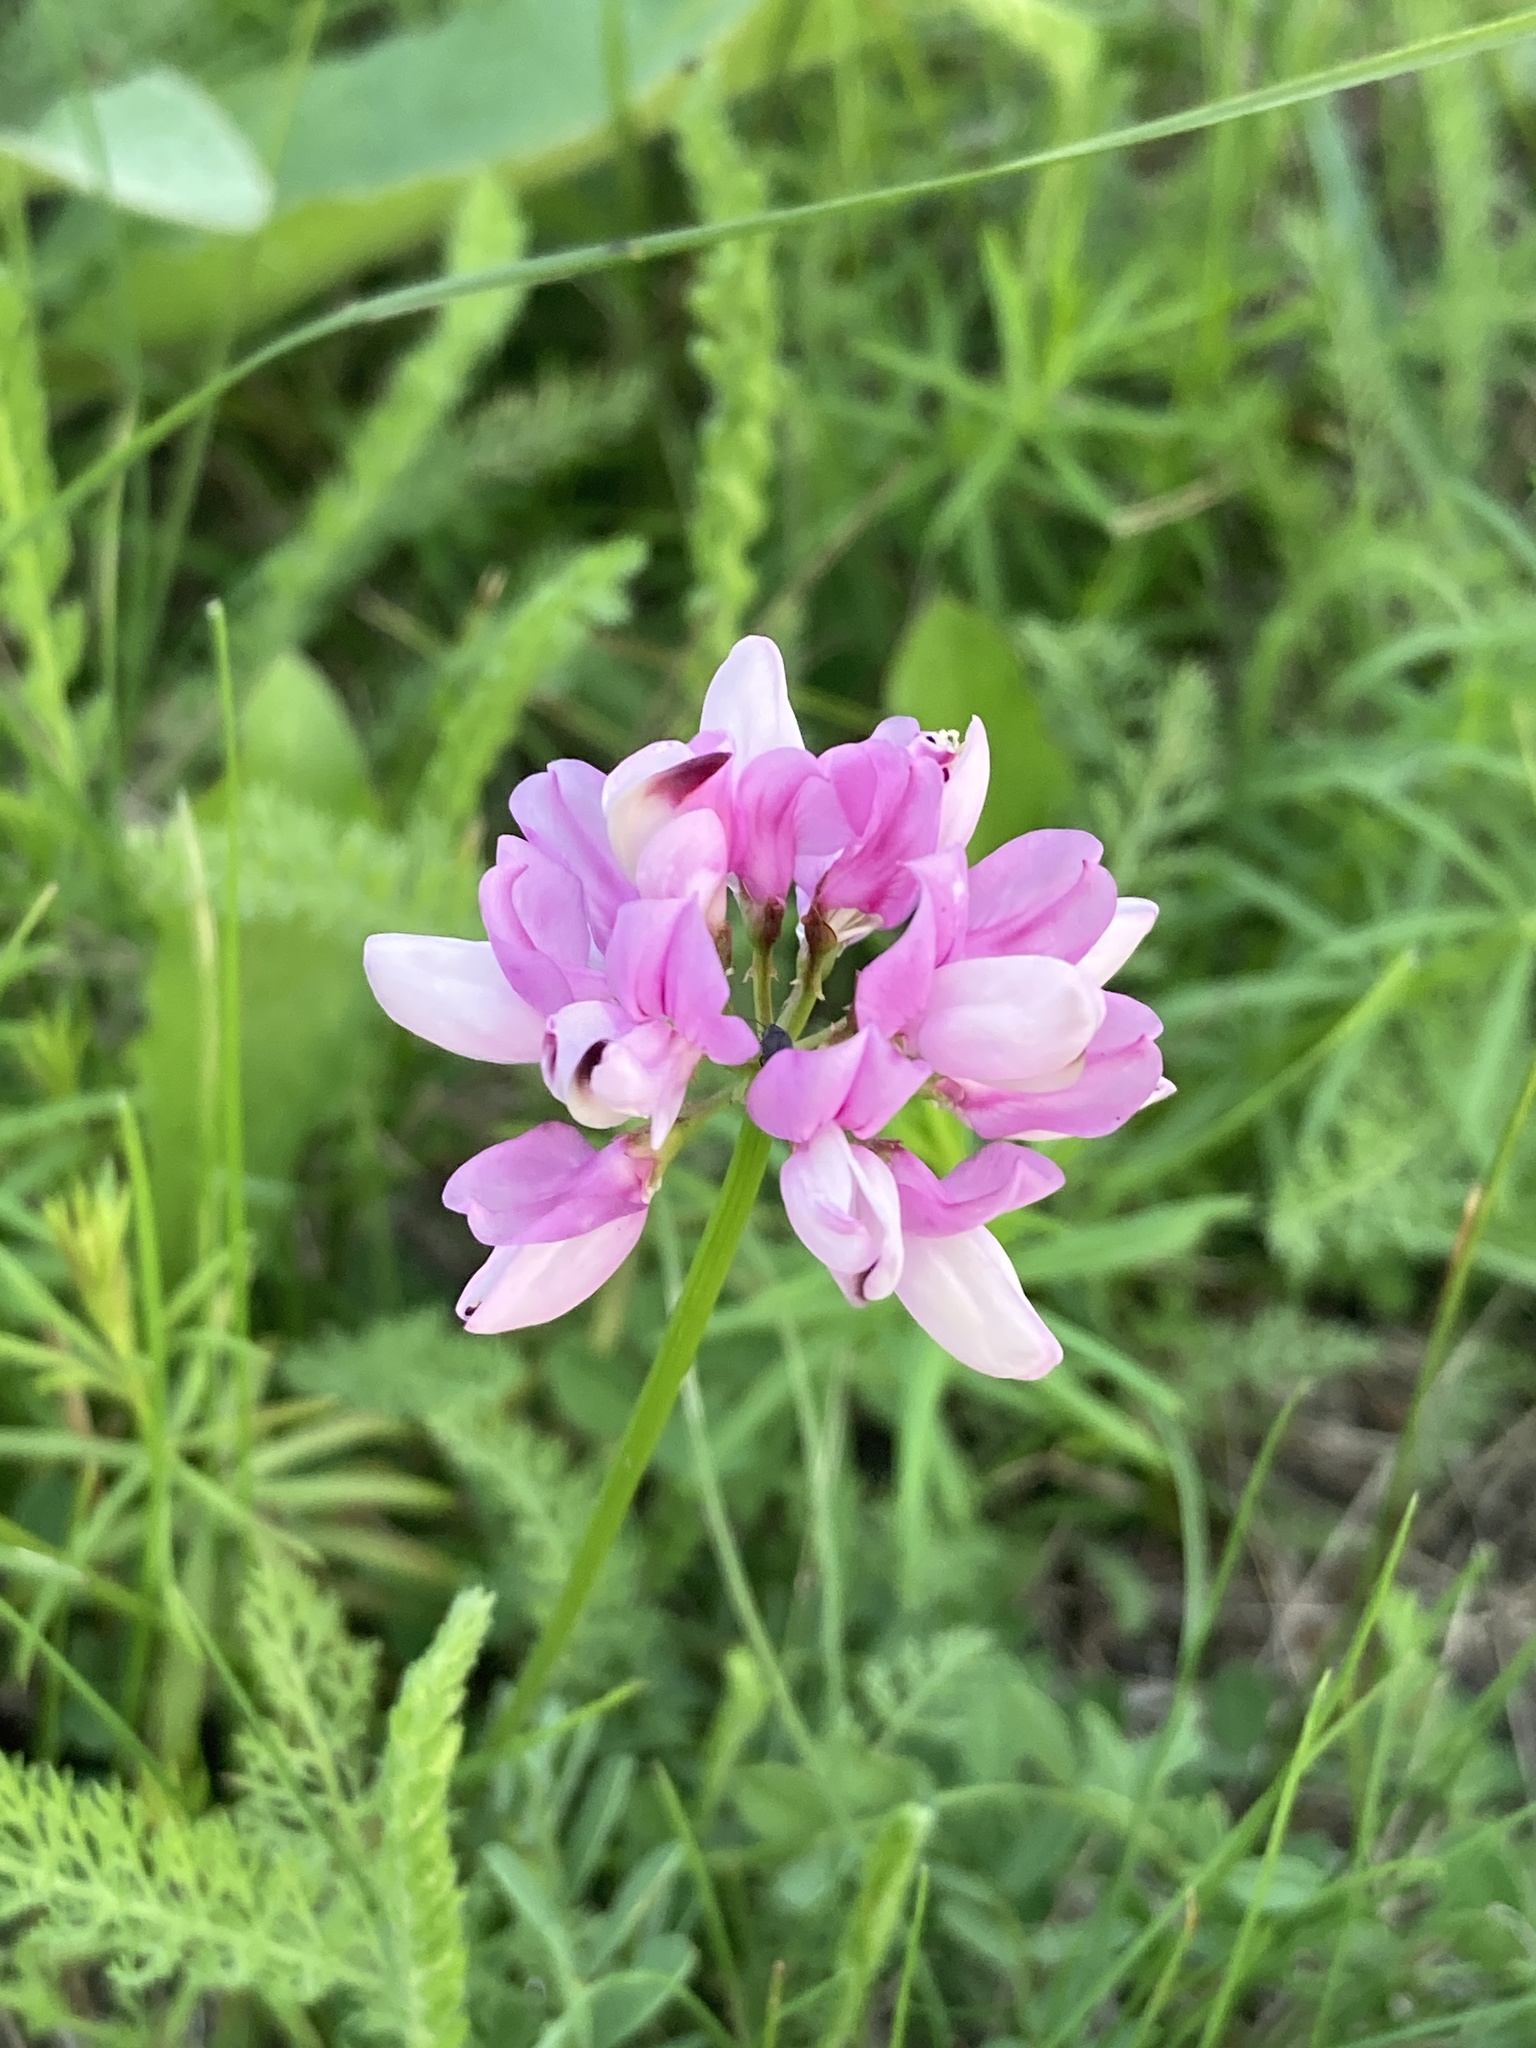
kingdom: Plantae
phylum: Tracheophyta
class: Magnoliopsida
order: Fabales
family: Fabaceae
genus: Coronilla
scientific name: Coronilla varia
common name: Crownvetch
